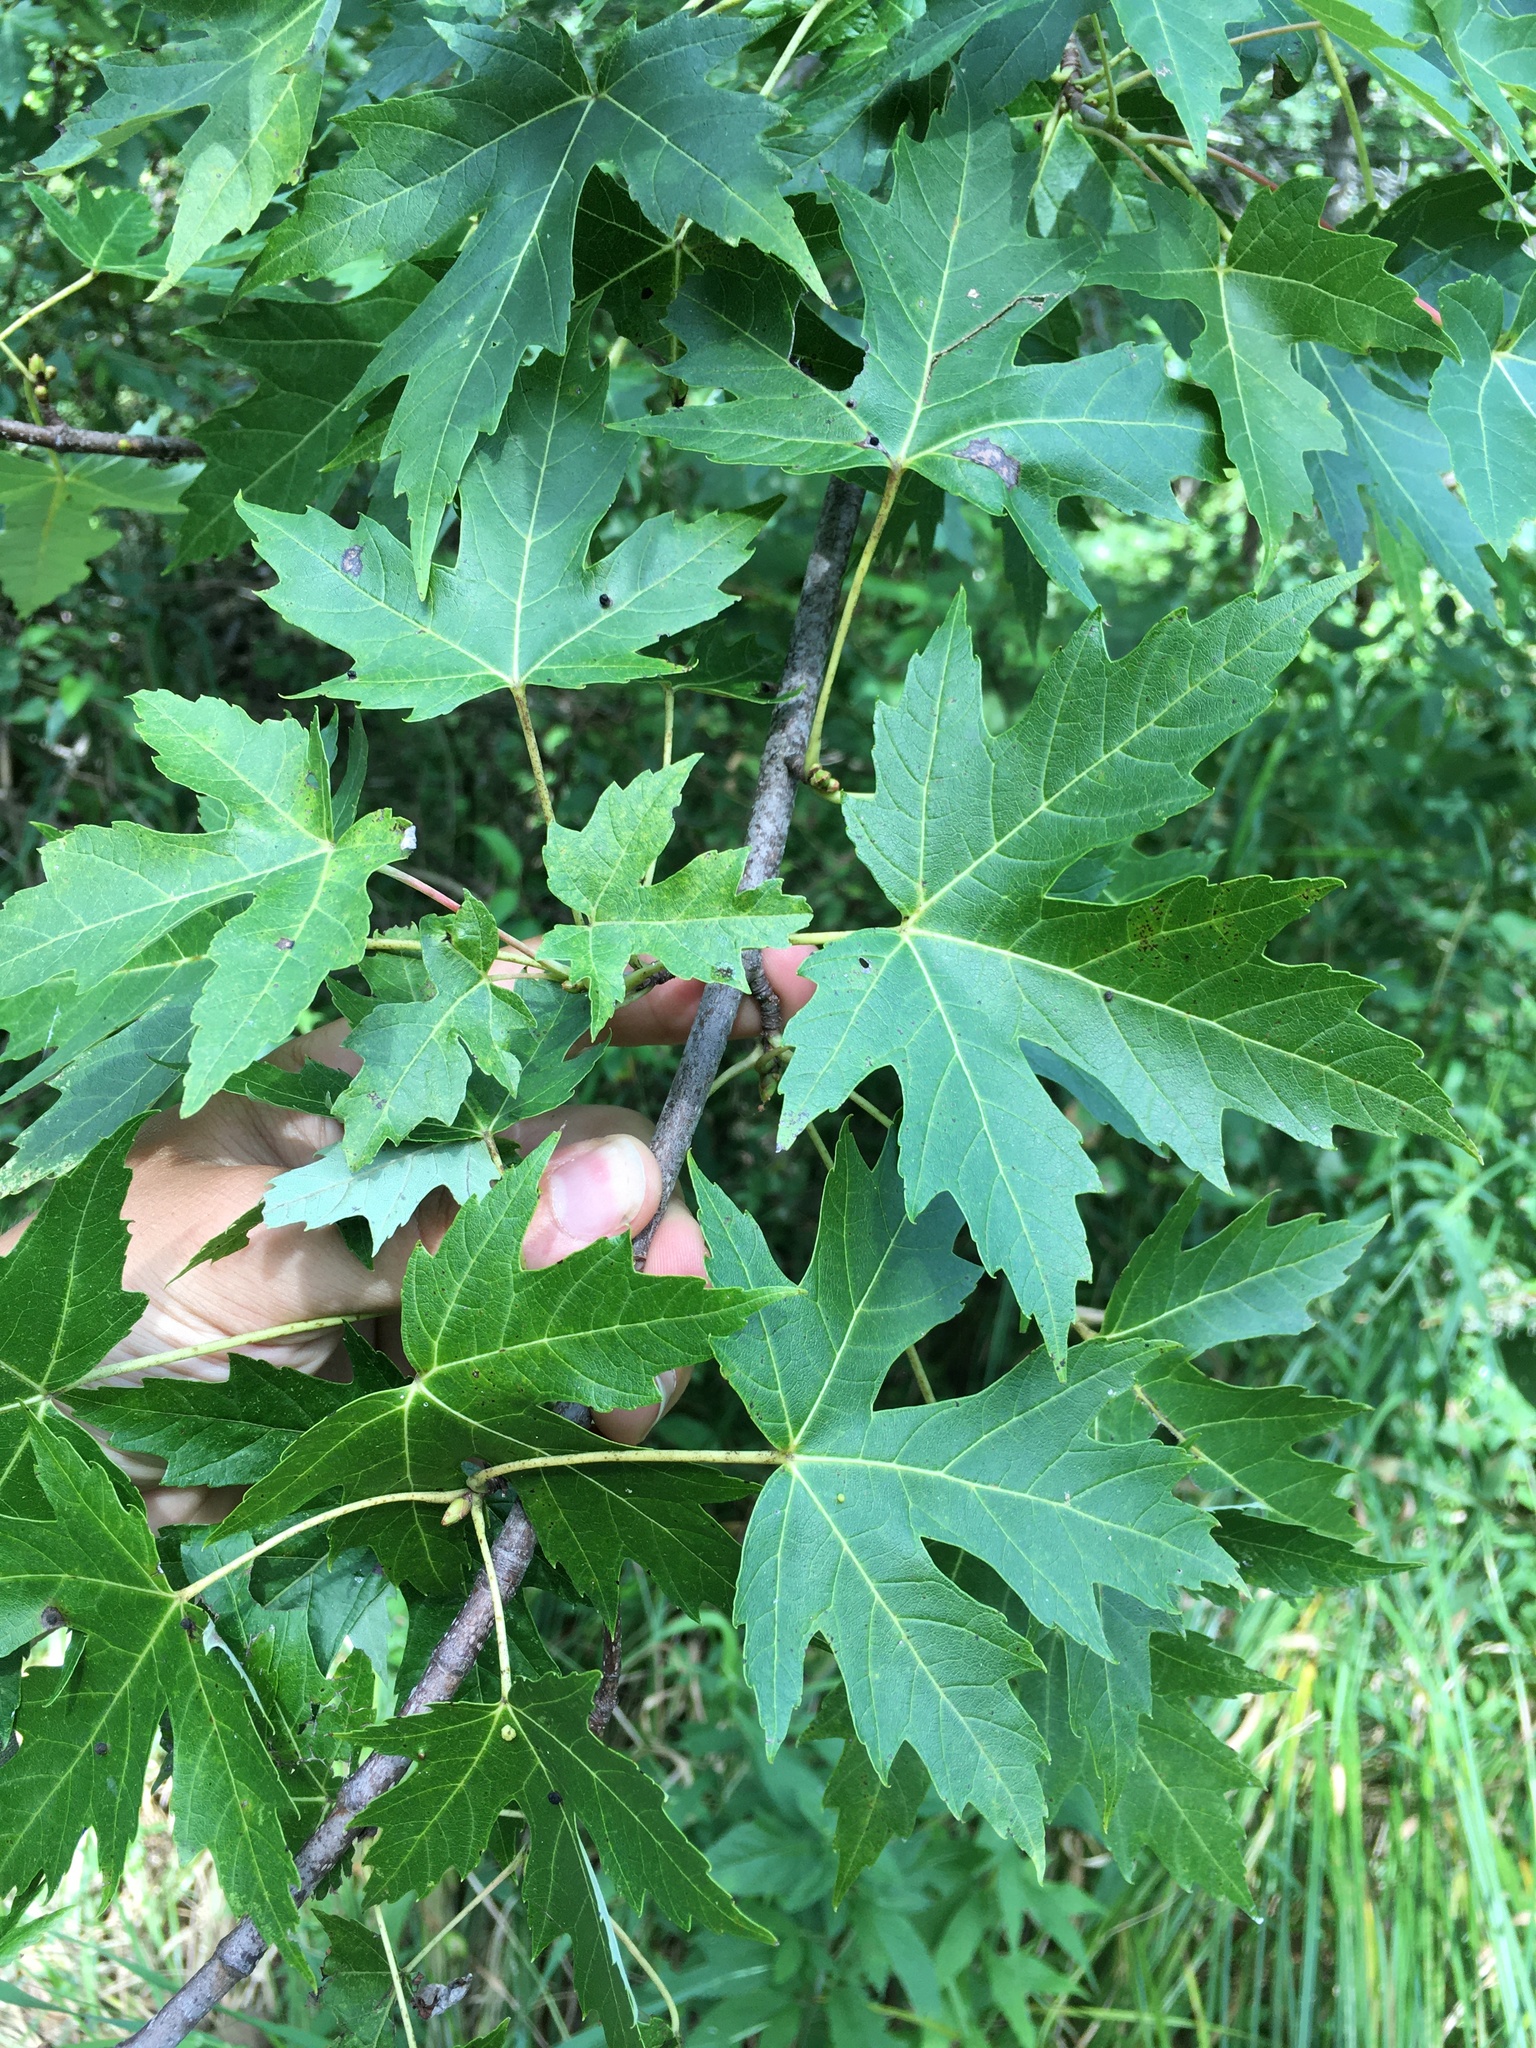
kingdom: Plantae
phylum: Tracheophyta
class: Magnoliopsida
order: Sapindales
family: Sapindaceae
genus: Acer
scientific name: Acer saccharinum
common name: Silver maple
